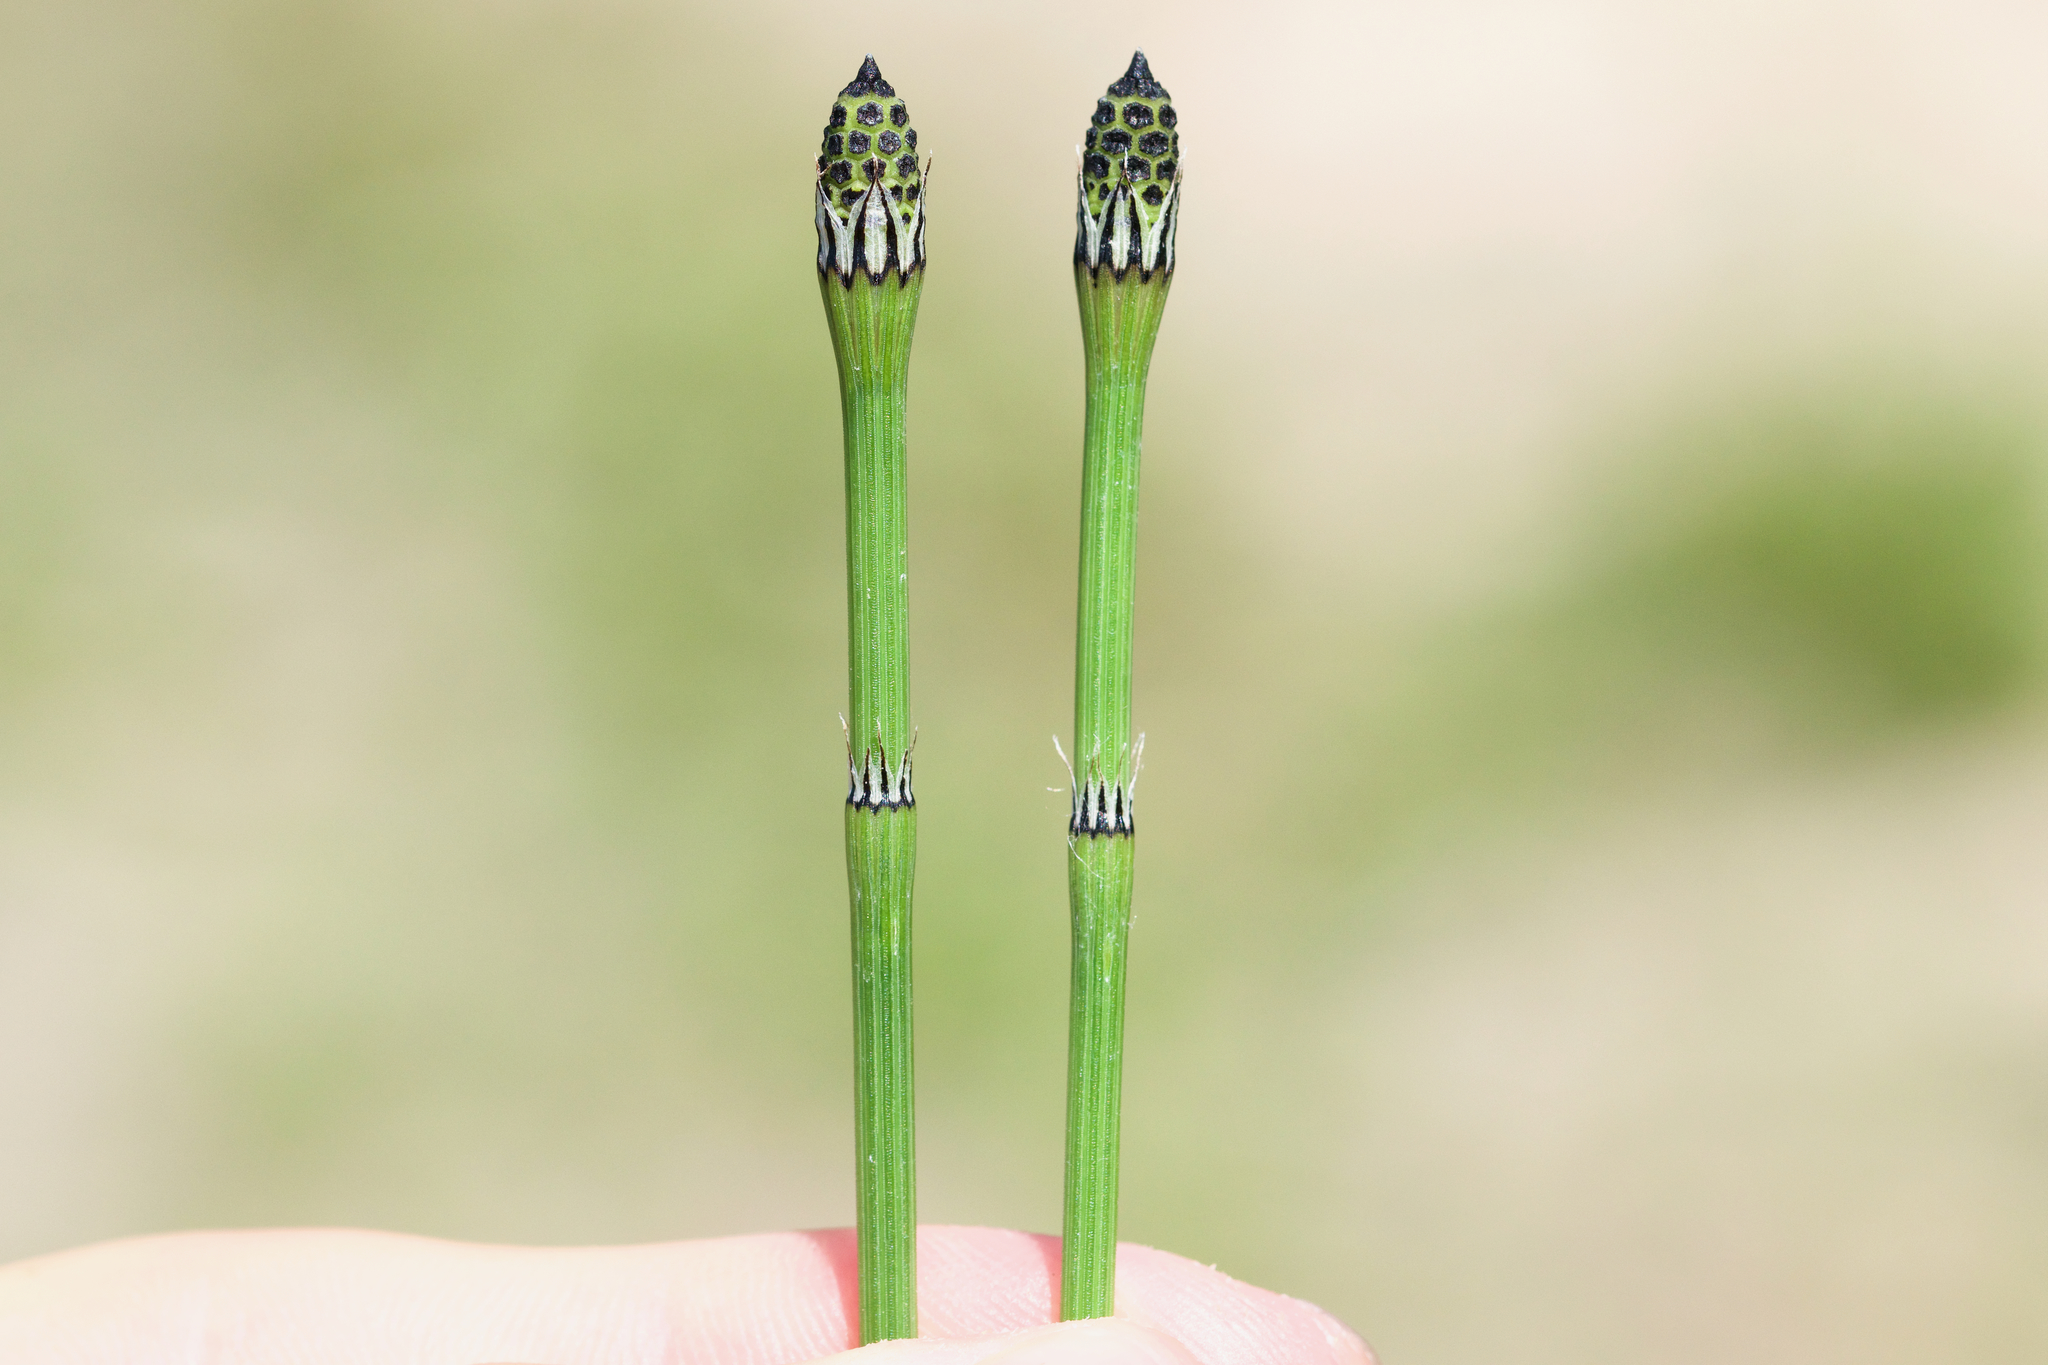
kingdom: Plantae
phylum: Tracheophyta
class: Polypodiopsida
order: Equisetales
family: Equisetaceae
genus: Equisetum
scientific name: Equisetum variegatum
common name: Variegated horsetail
